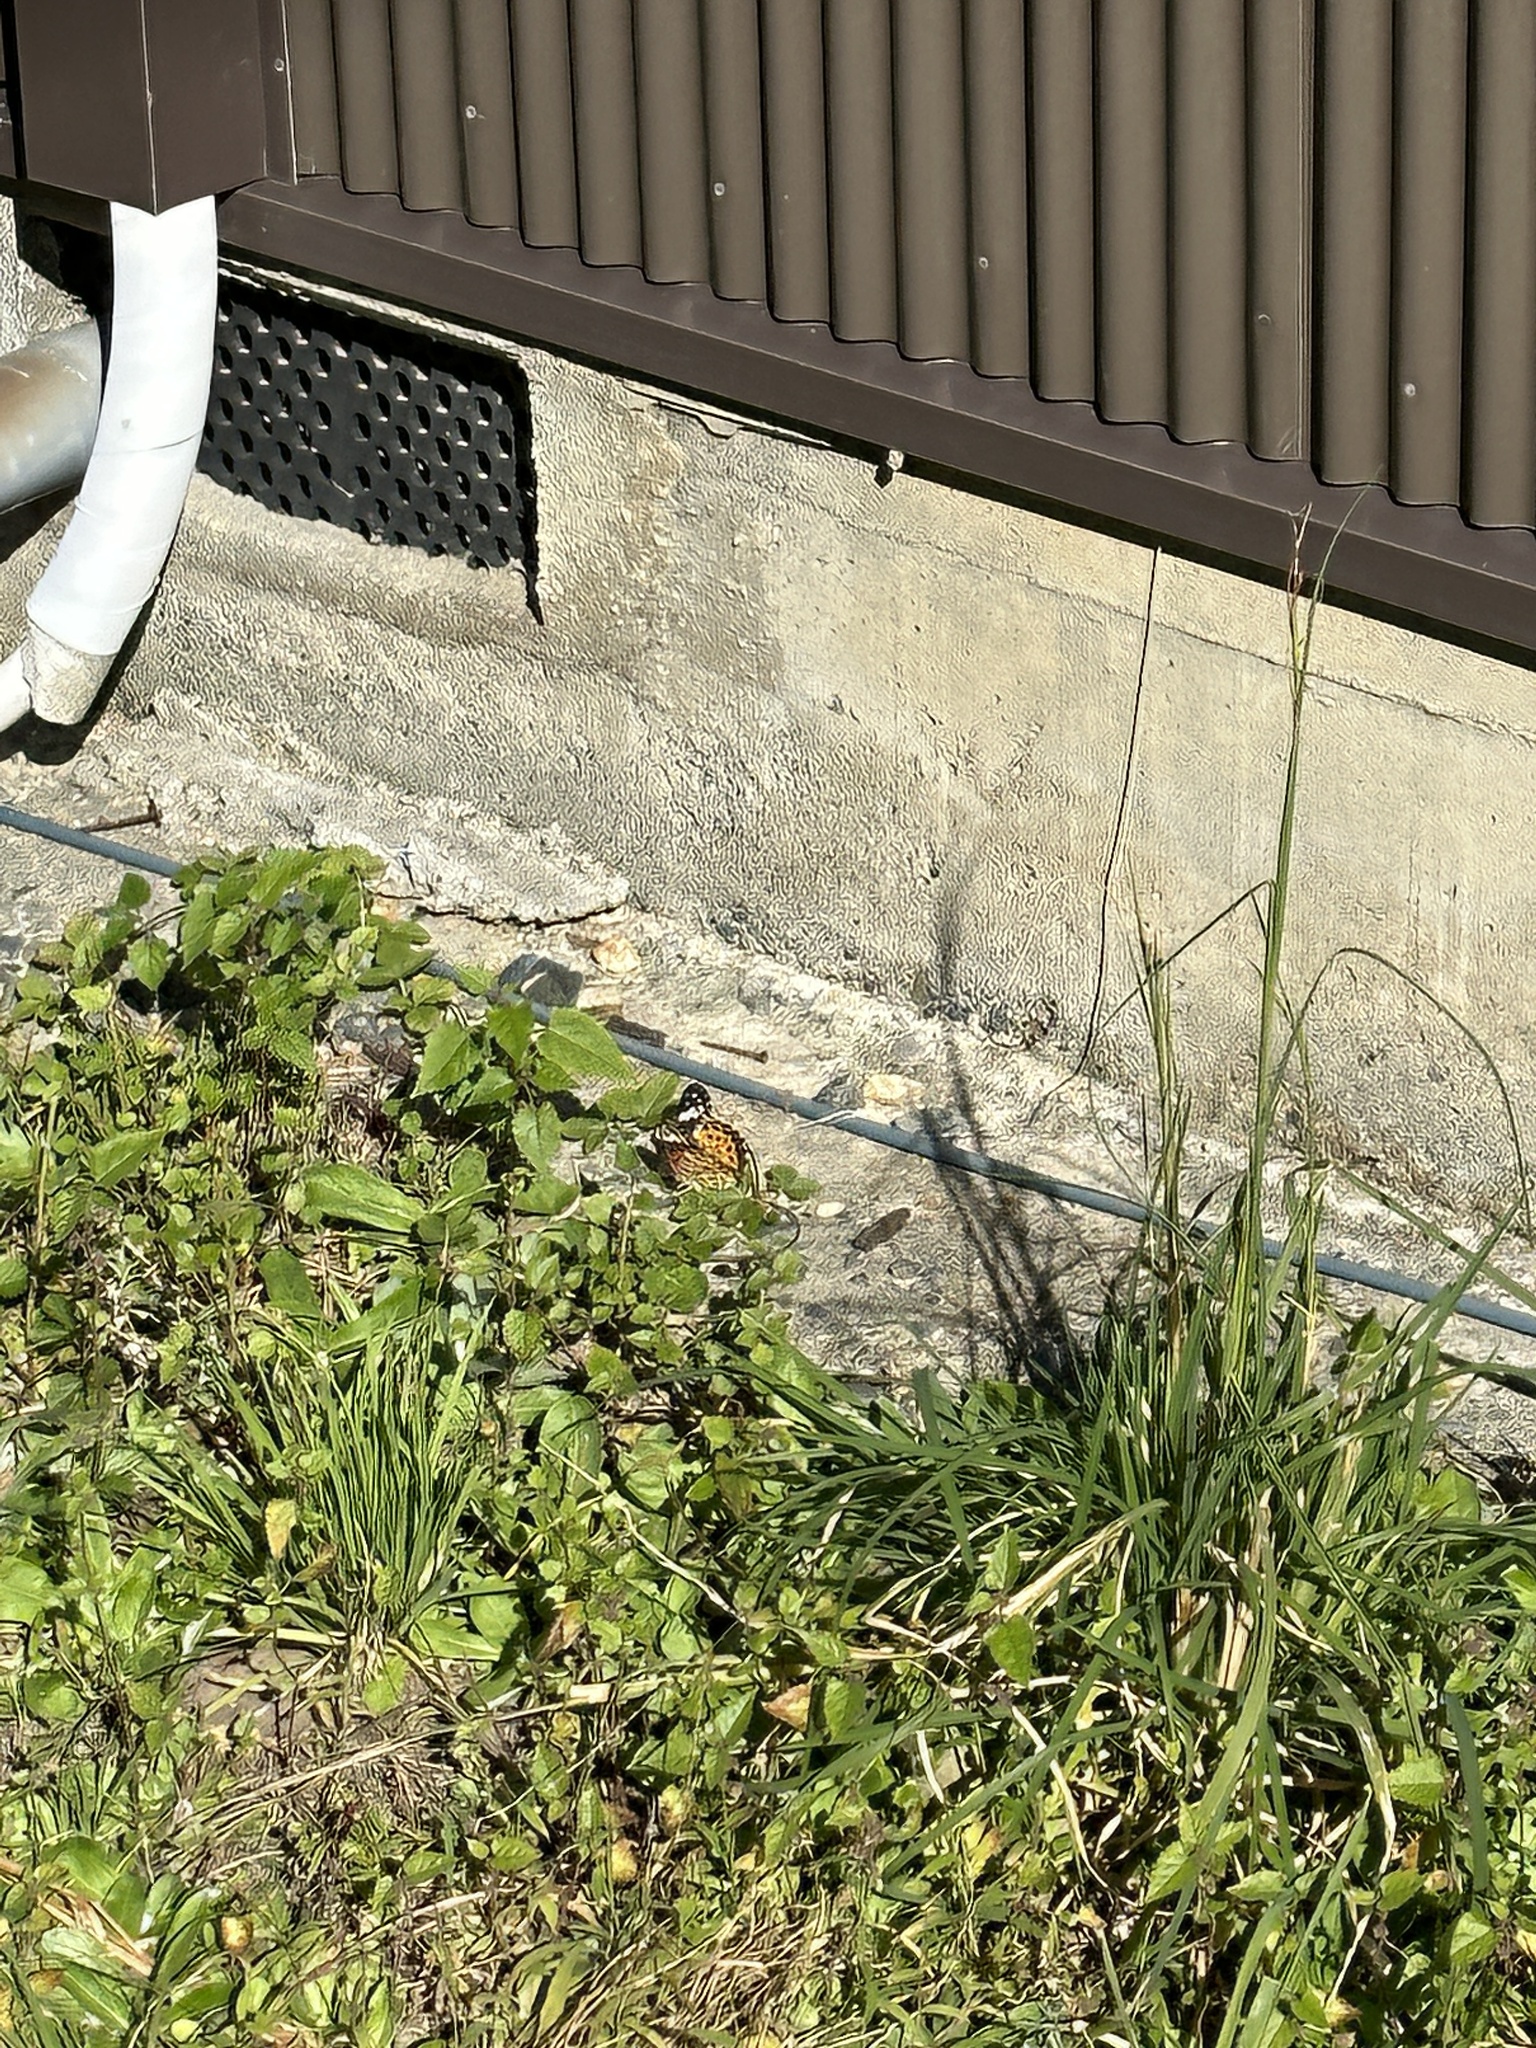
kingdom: Animalia
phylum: Arthropoda
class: Insecta
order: Lepidoptera
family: Nymphalidae
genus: Argynnis
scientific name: Argynnis hyperbius
